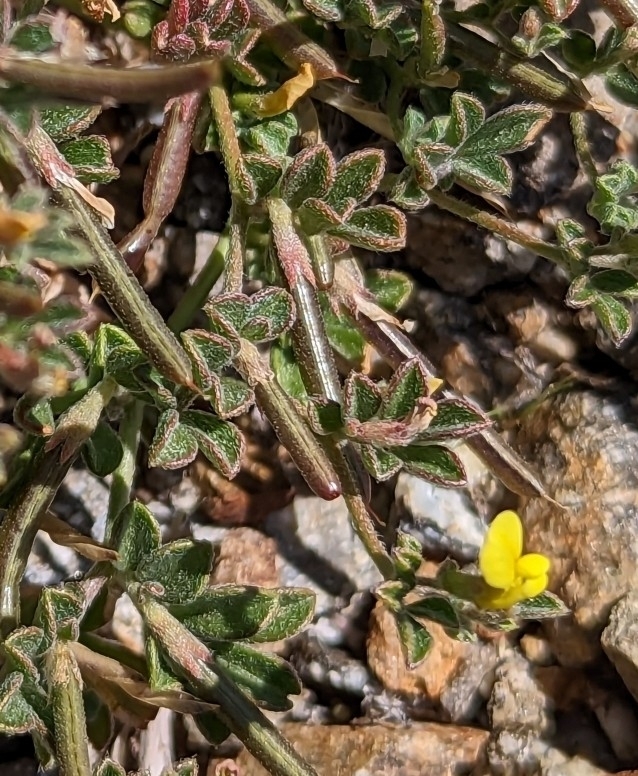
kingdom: Plantae
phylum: Tracheophyta
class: Magnoliopsida
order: Fabales
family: Fabaceae
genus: Acmispon
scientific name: Acmispon strigosus
